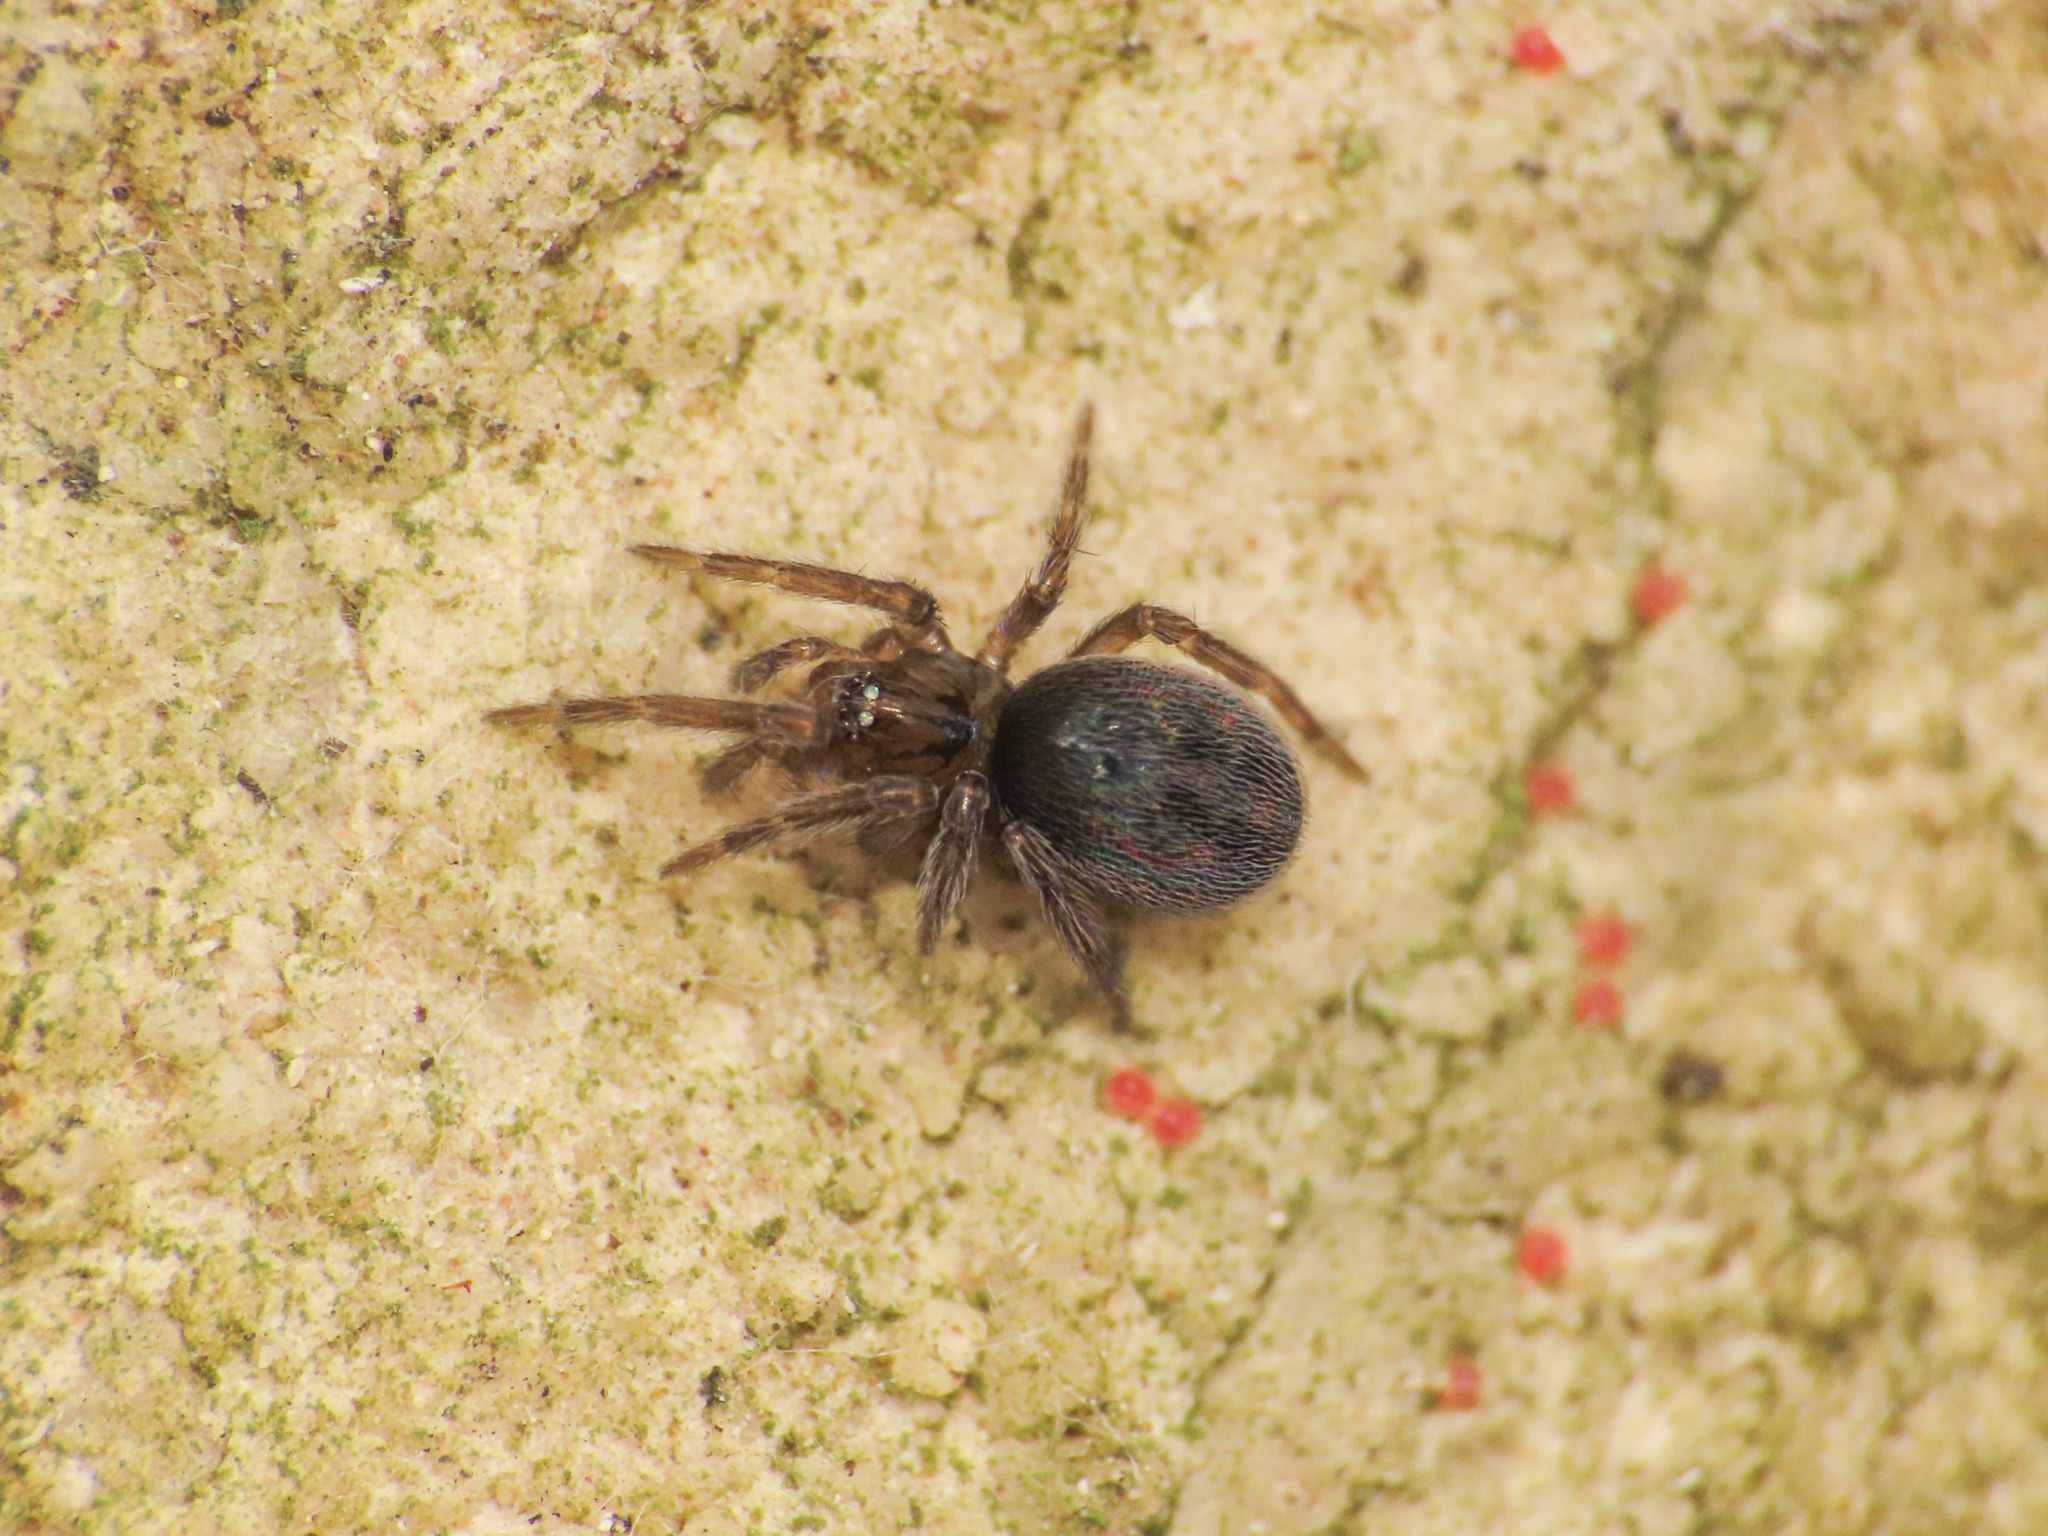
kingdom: Animalia
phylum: Arthropoda
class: Arachnida
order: Araneae
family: Dictynidae
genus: Lathys
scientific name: Lathys stigmatisata
